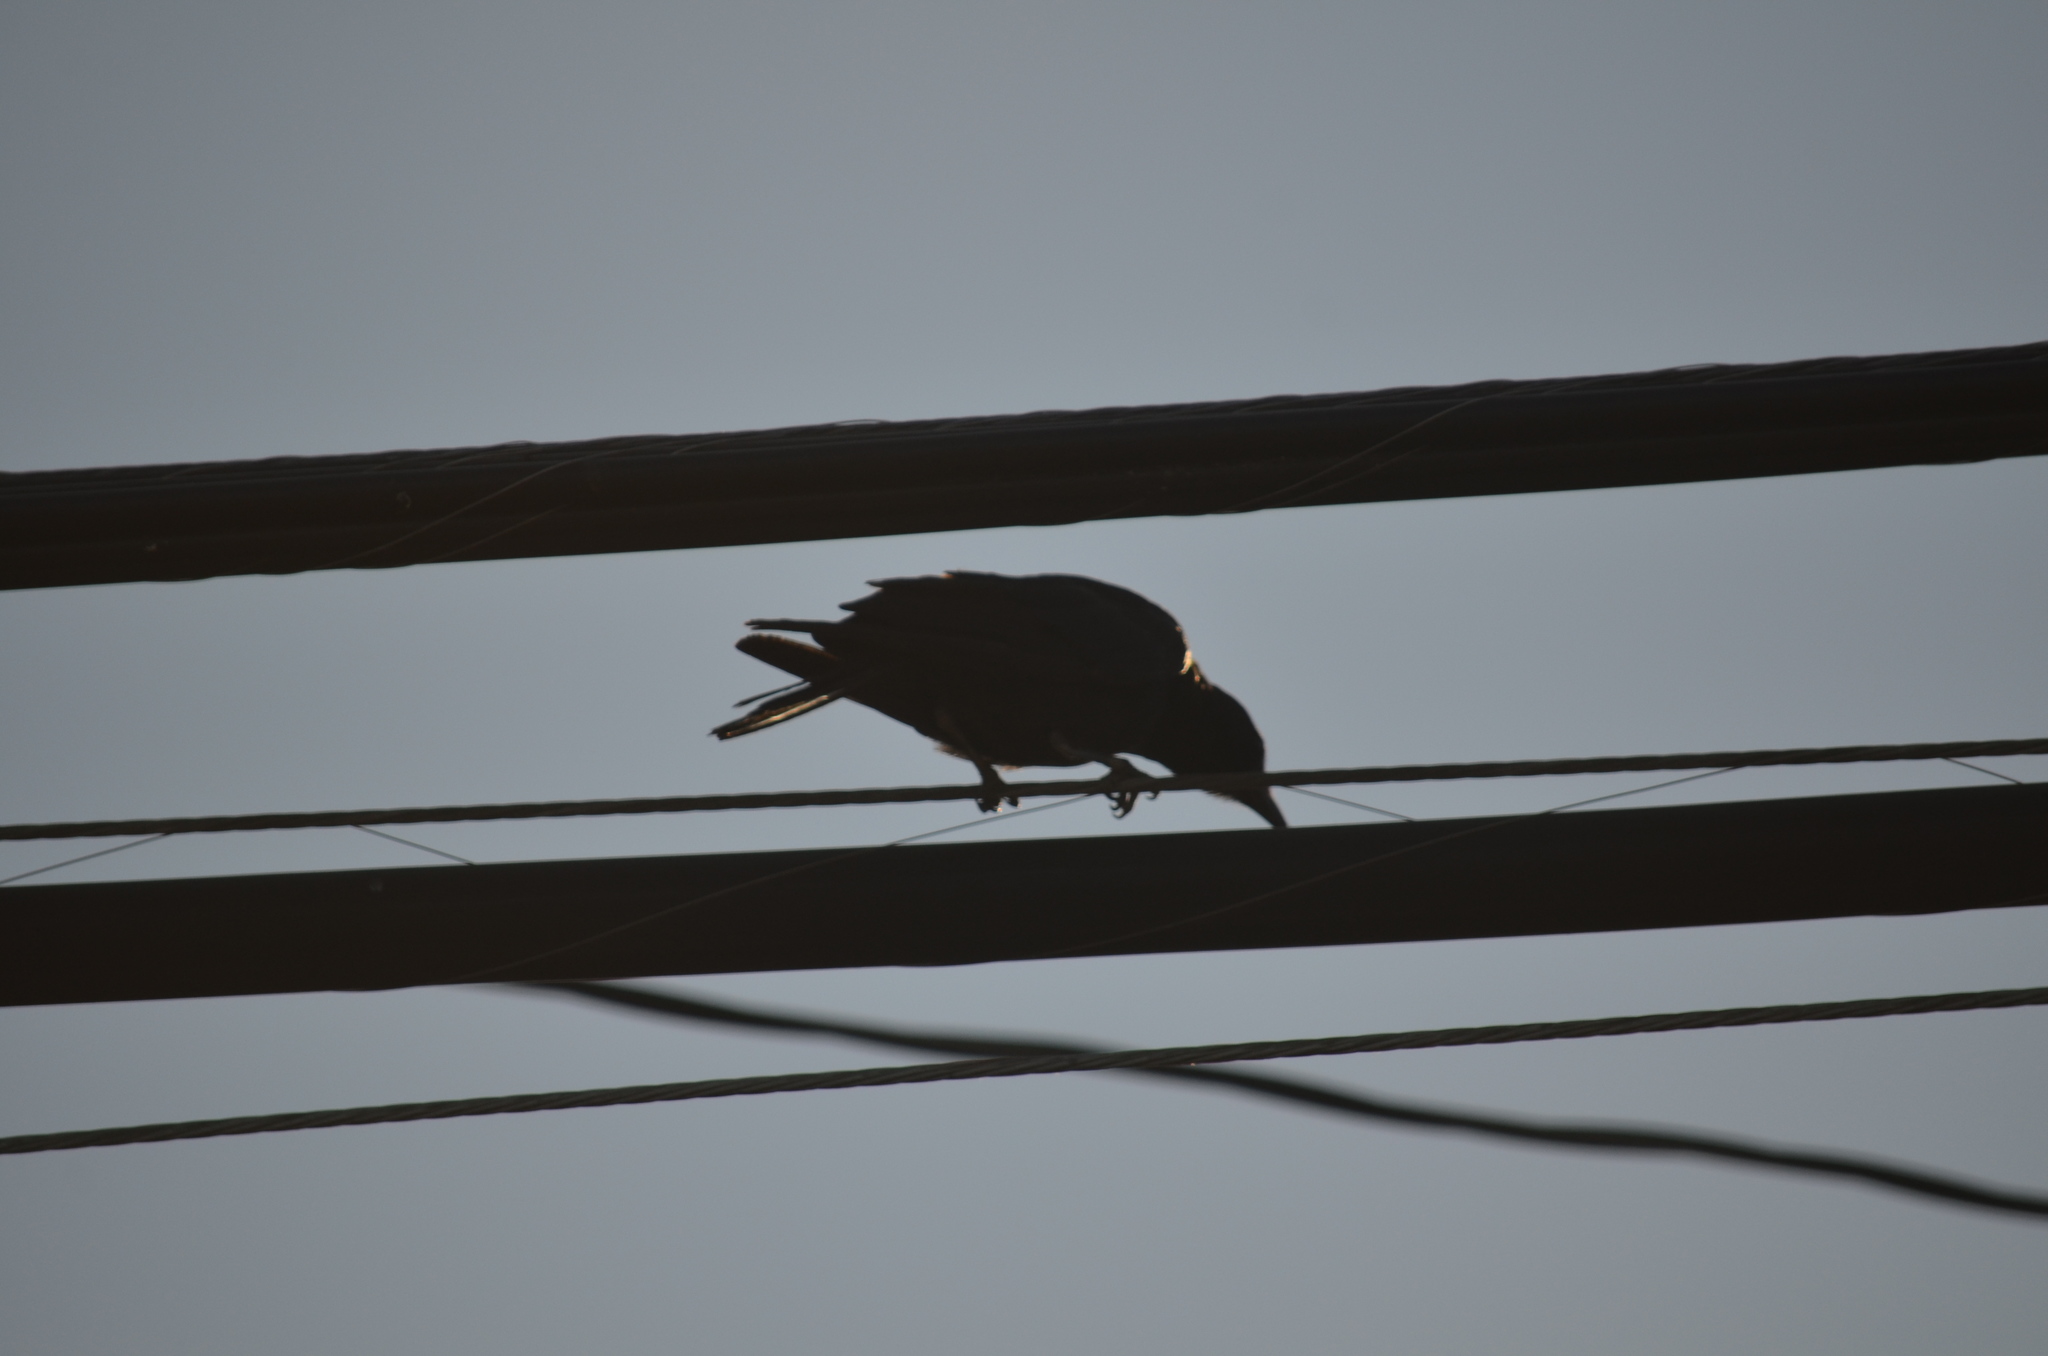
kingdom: Animalia
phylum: Chordata
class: Aves
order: Passeriformes
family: Corvidae
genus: Corvus
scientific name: Corvus brachyrhynchos
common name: American crow
